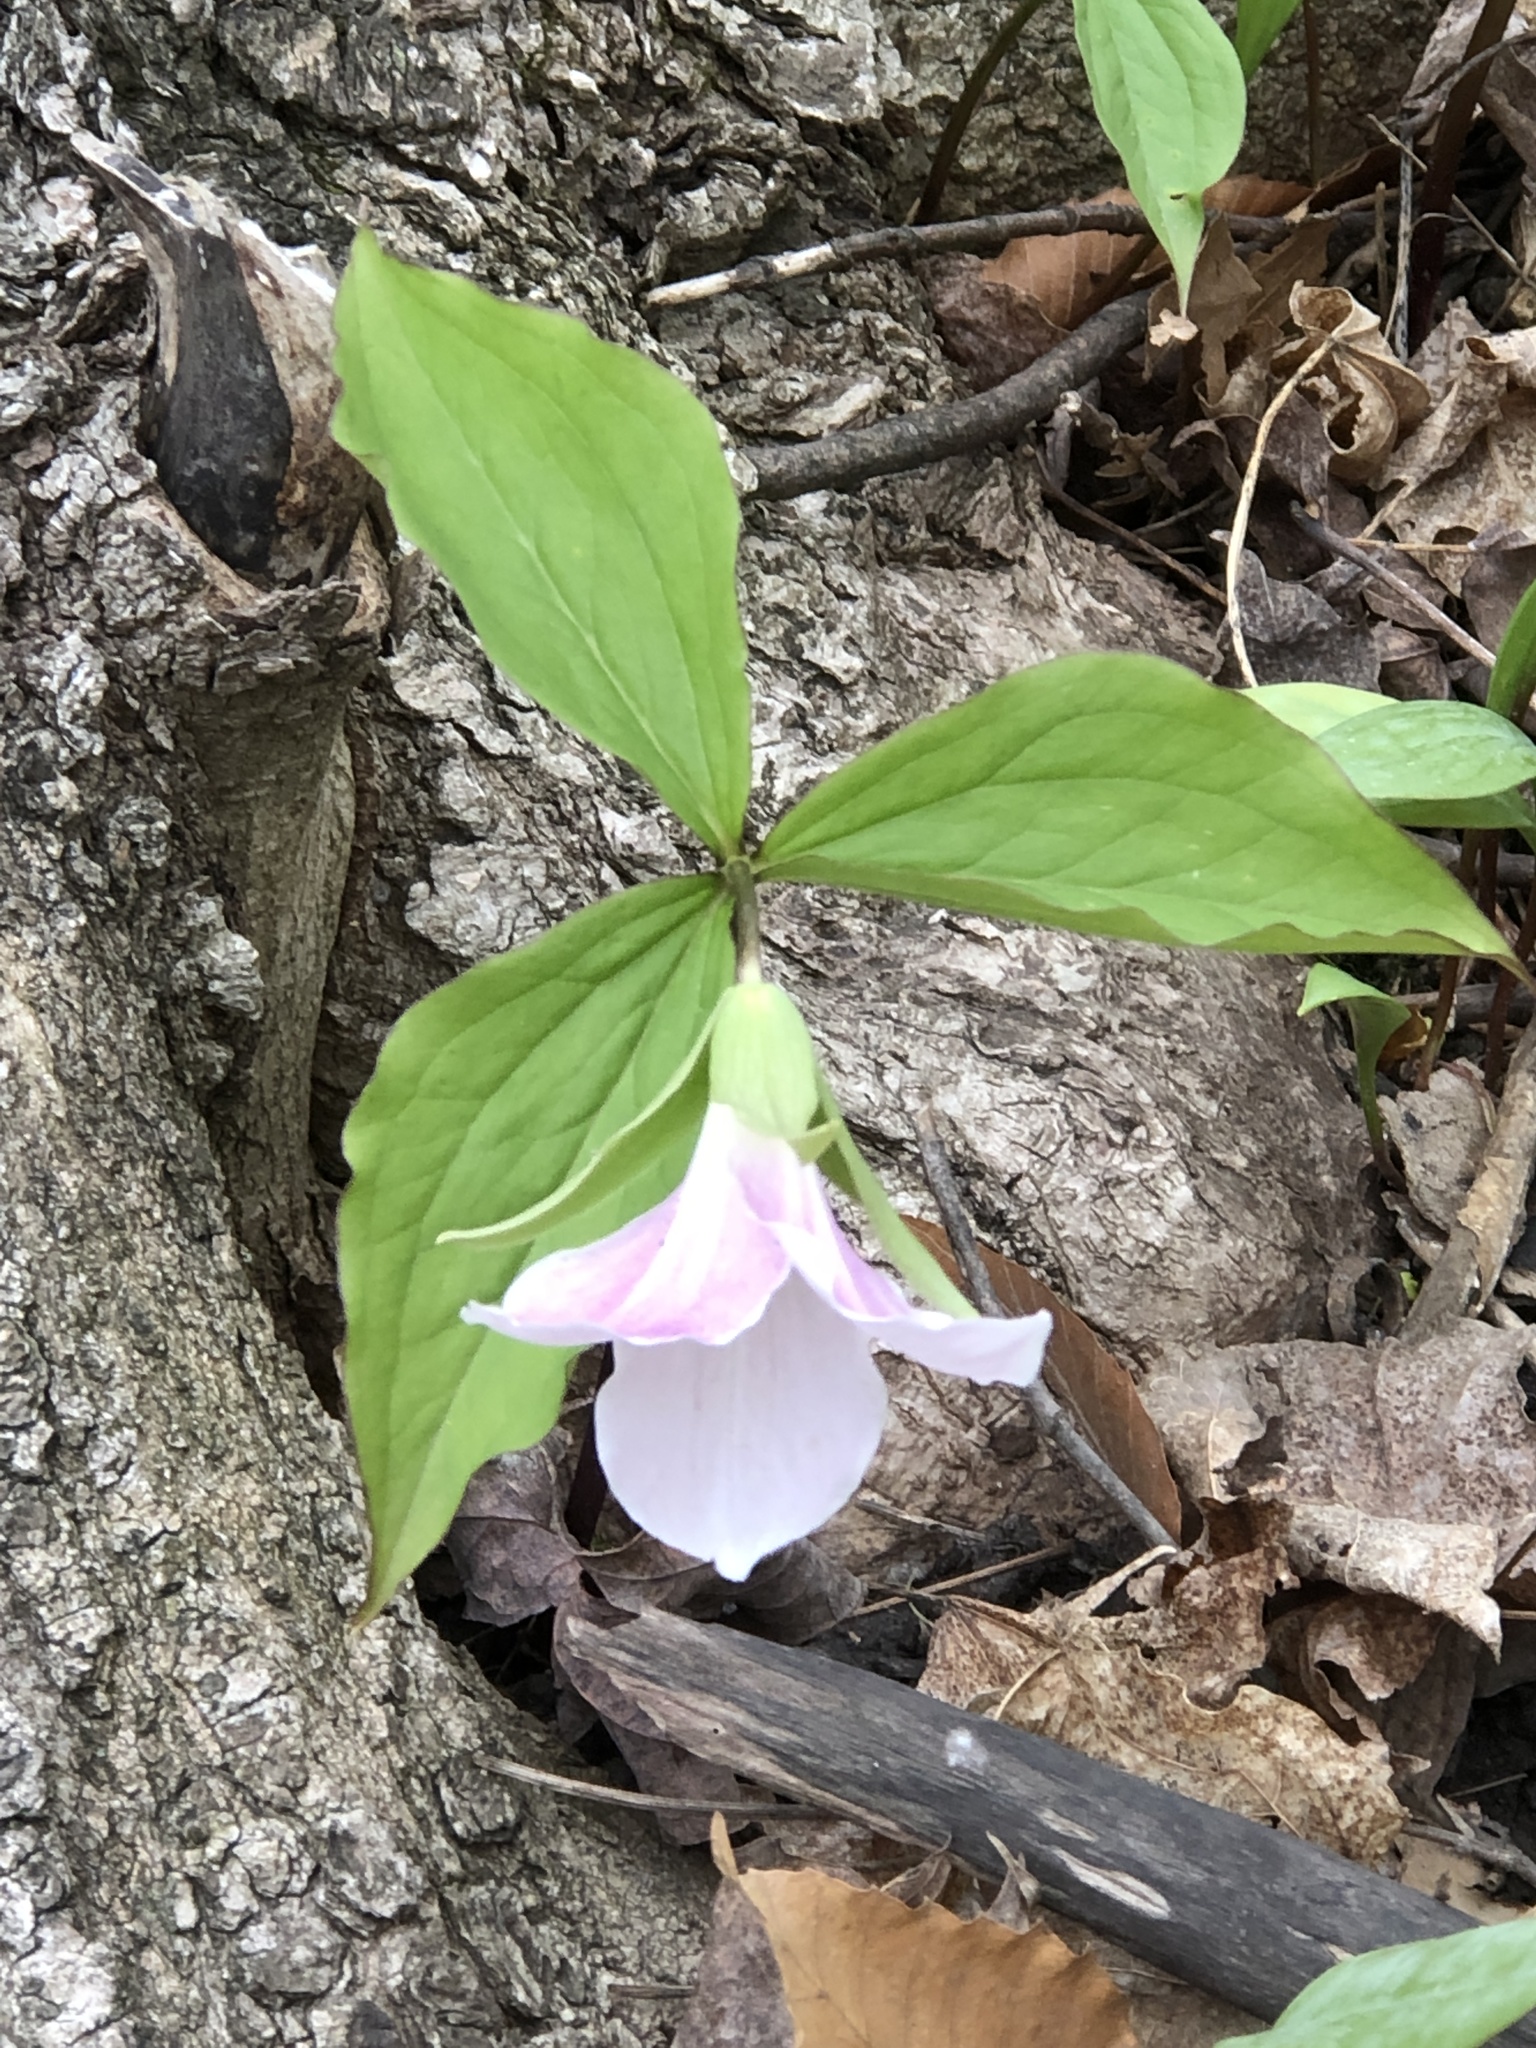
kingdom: Plantae
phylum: Tracheophyta
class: Liliopsida
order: Liliales
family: Melanthiaceae
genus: Trillium
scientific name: Trillium grandiflorum
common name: Great white trillium
